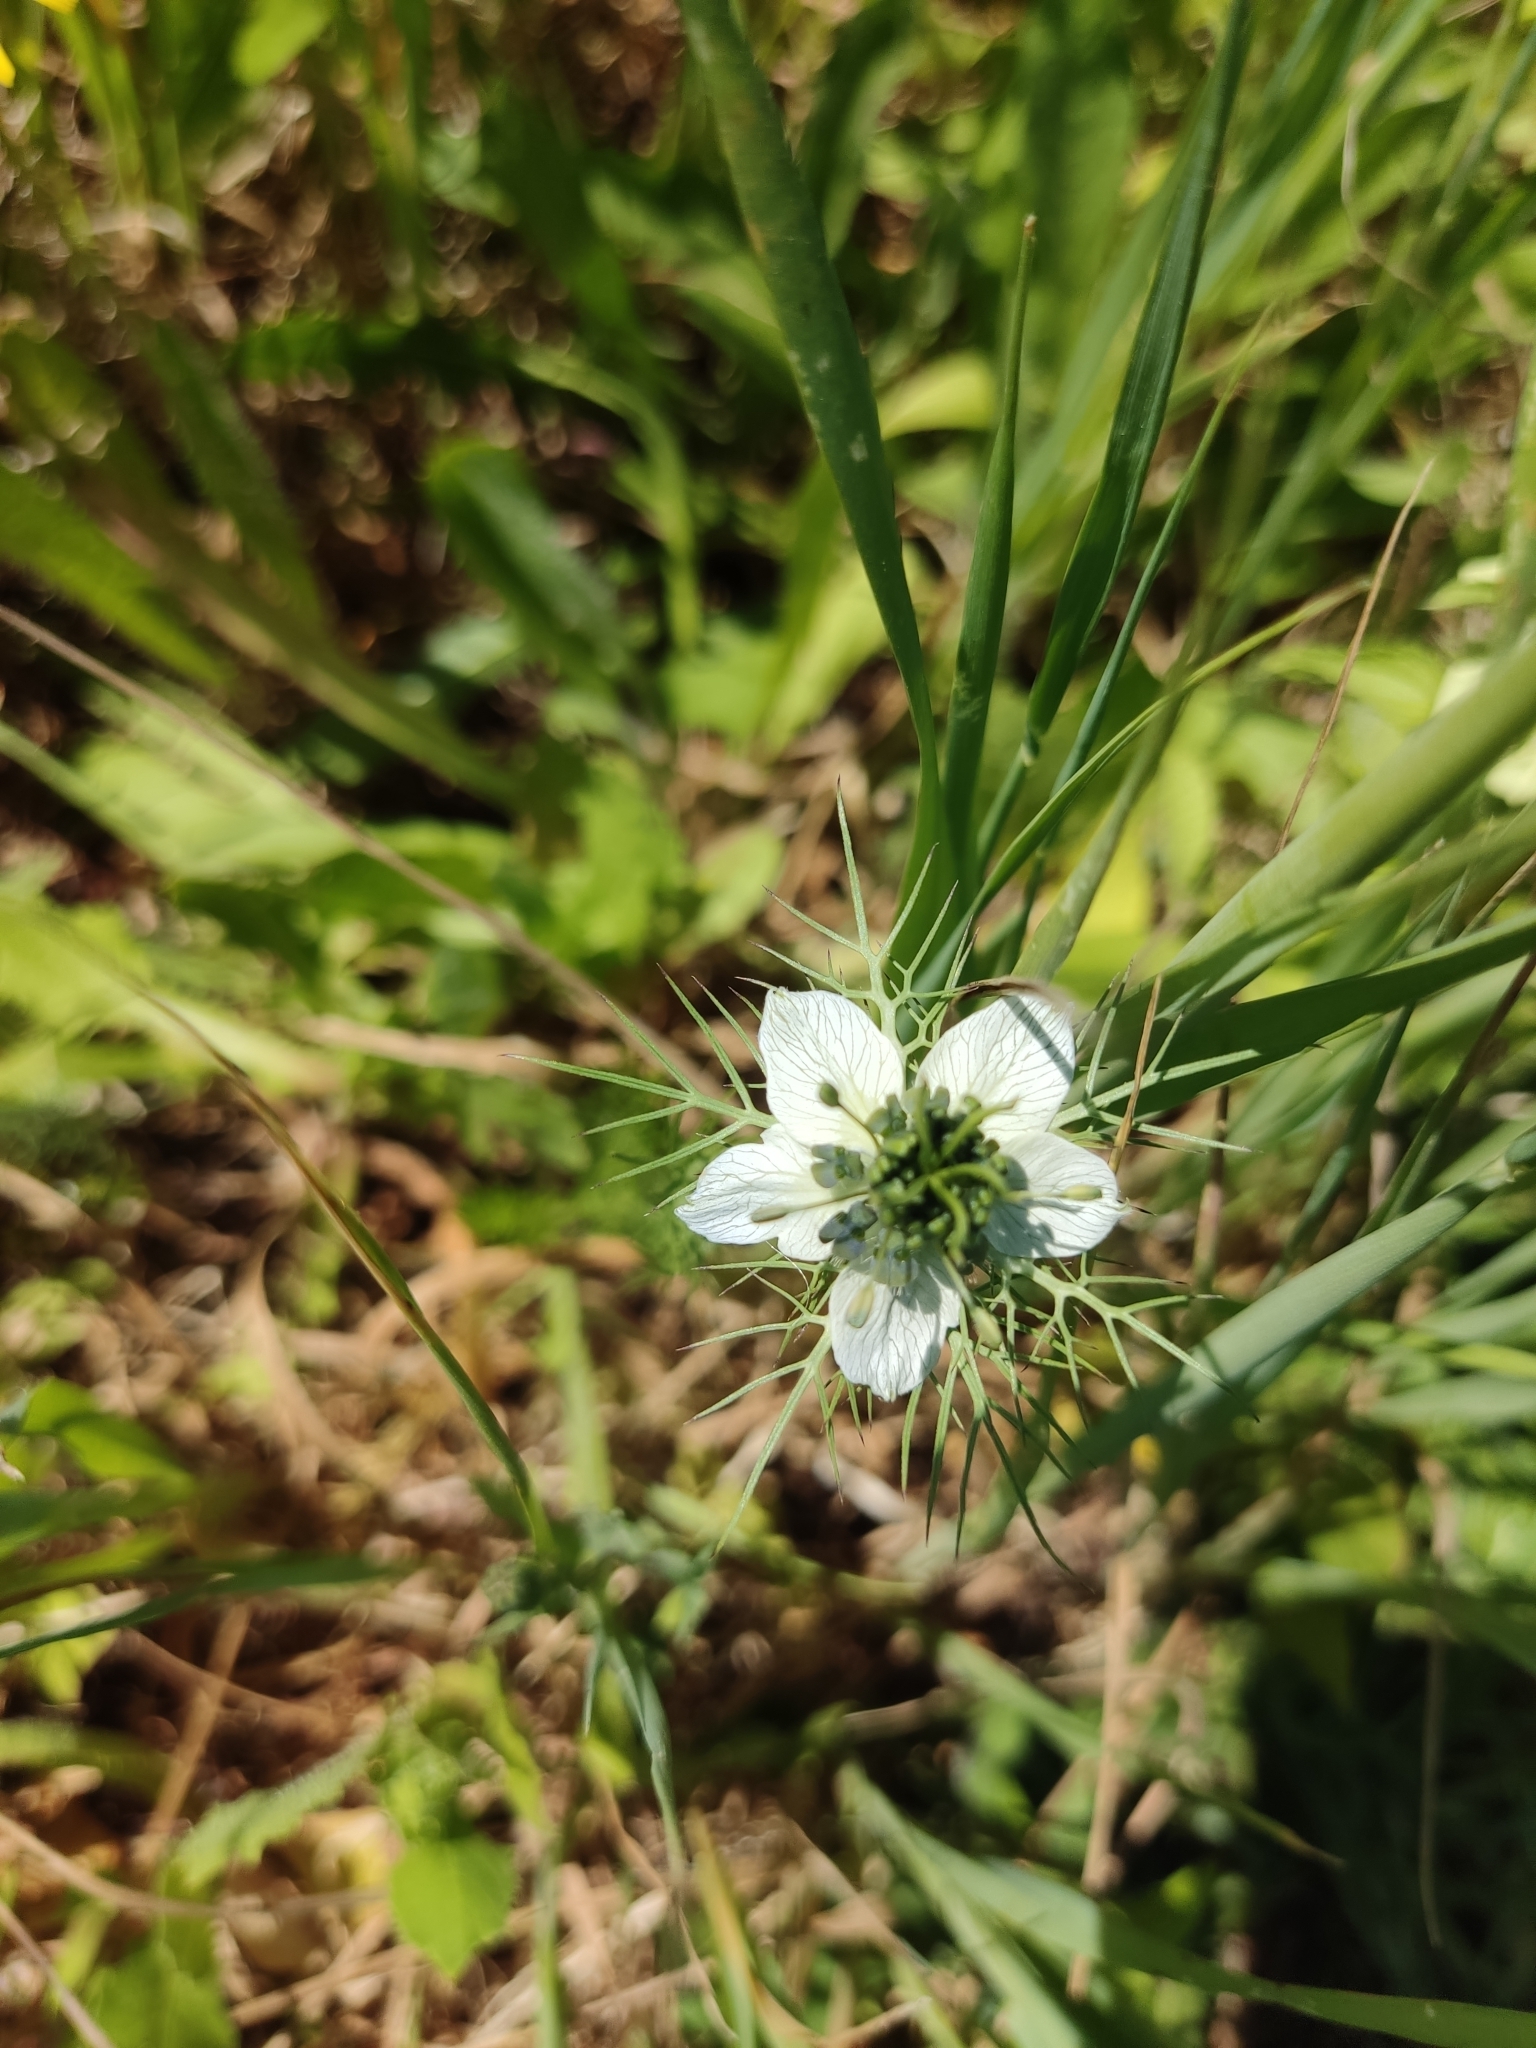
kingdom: Plantae
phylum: Tracheophyta
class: Magnoliopsida
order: Ranunculales
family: Ranunculaceae
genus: Nigella
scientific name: Nigella damascena
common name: Love-in-a-mist
